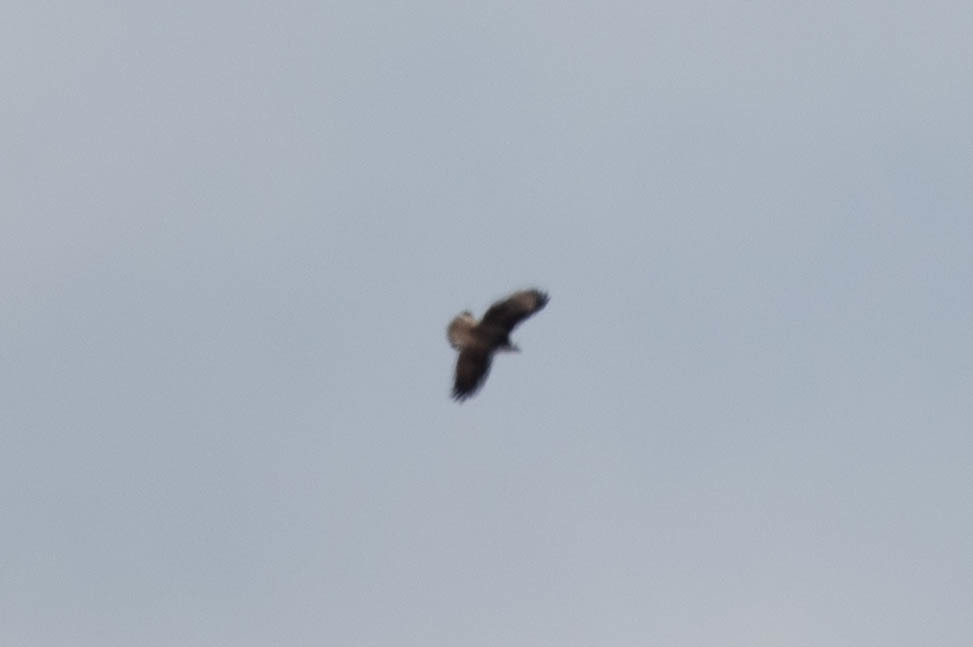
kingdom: Animalia
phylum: Chordata
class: Aves
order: Accipitriformes
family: Accipitridae
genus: Buteo
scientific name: Buteo jamaicensis
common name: Red-tailed hawk
